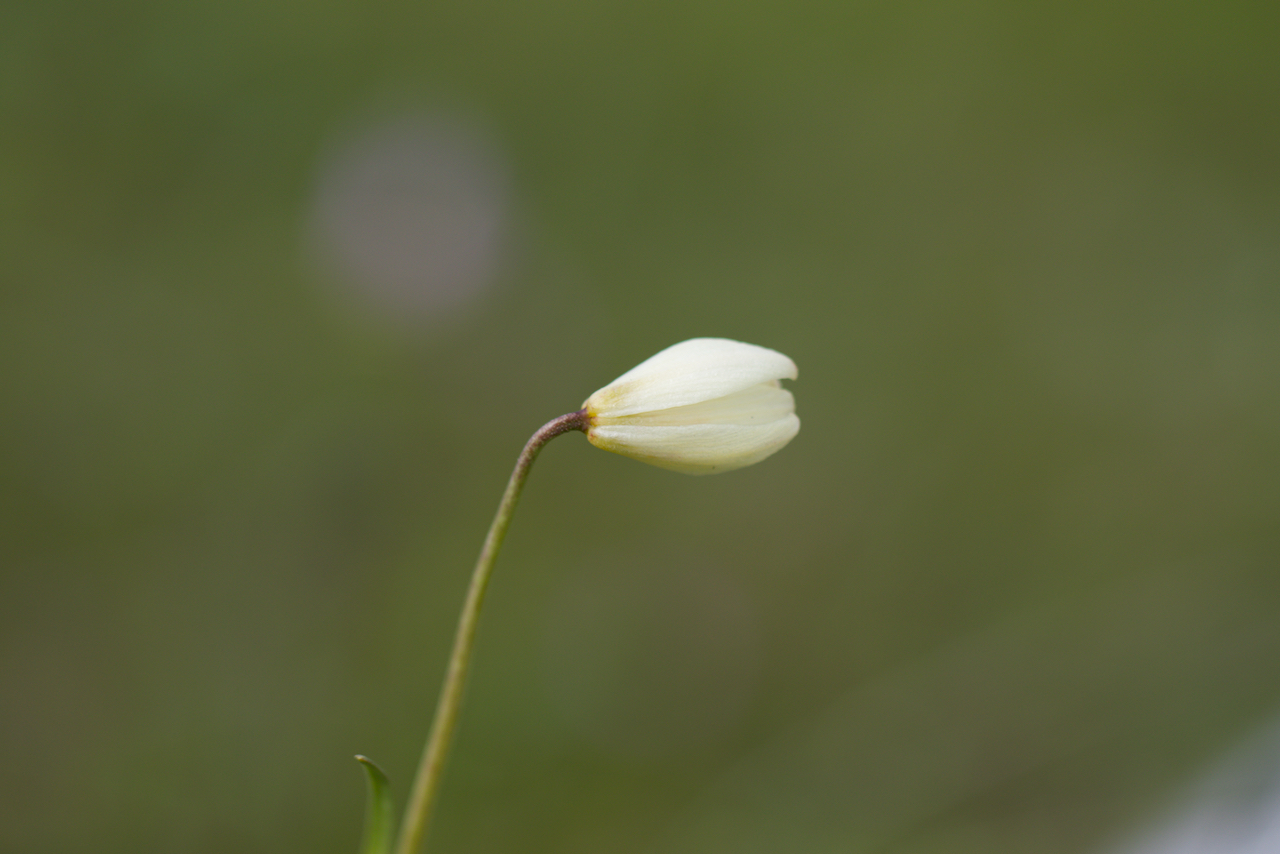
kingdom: Plantae
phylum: Tracheophyta
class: Liliopsida
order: Liliales
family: Liliaceae
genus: Fritillaria
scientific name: Fritillaria liliacea
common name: Fragrant fritillary
